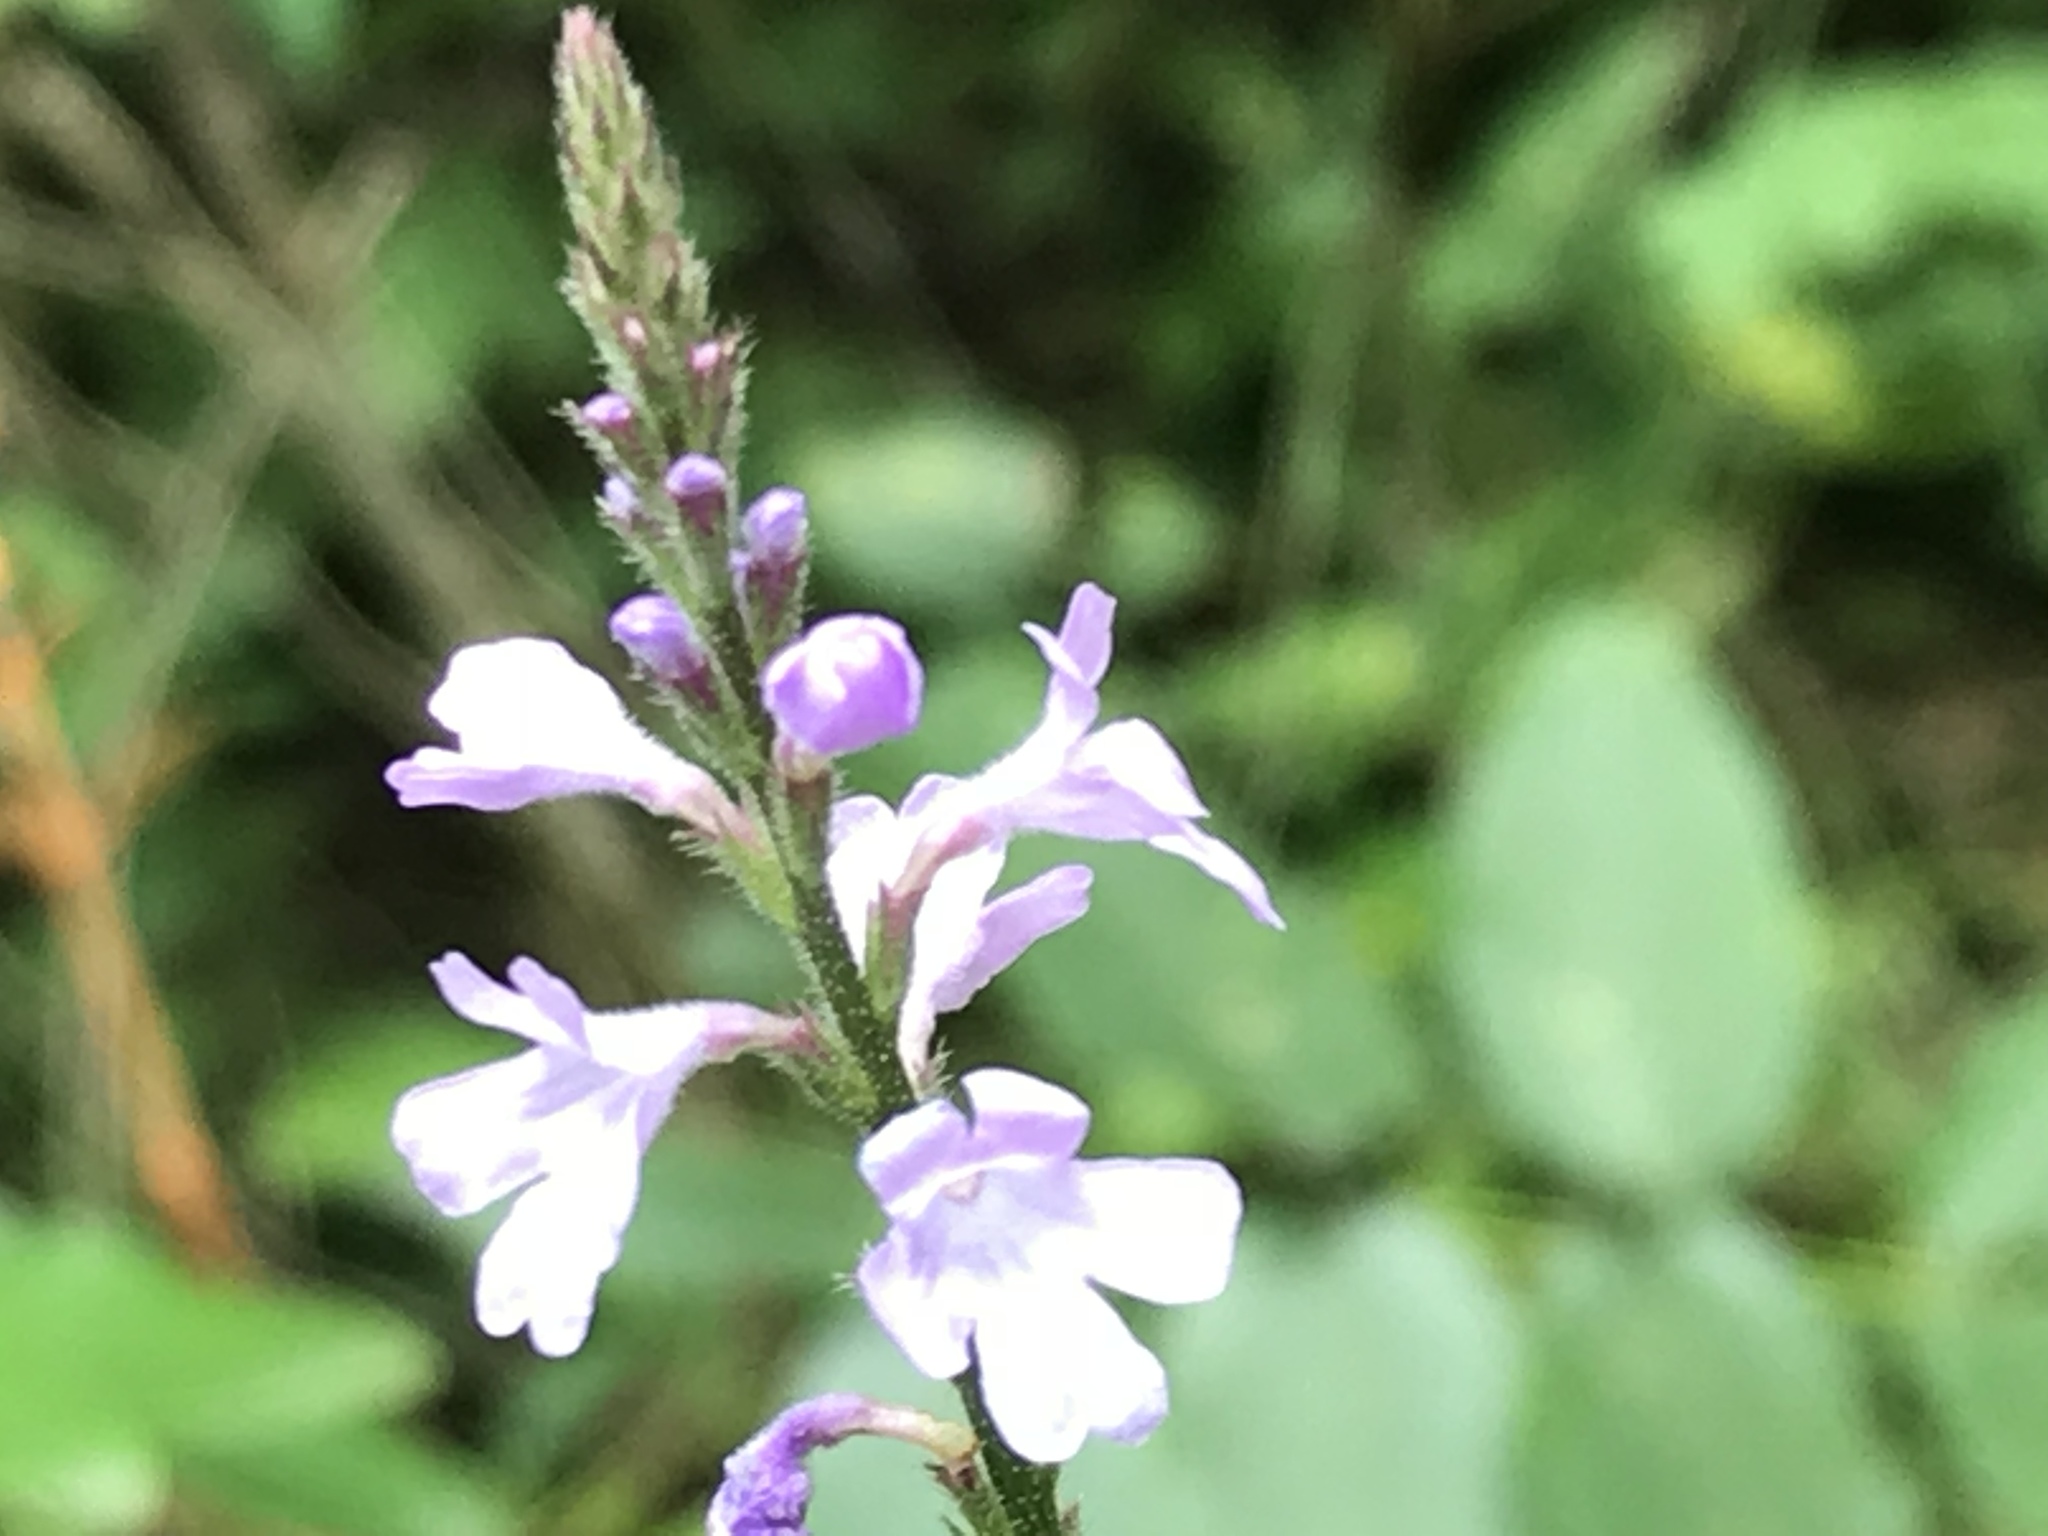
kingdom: Plantae
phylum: Tracheophyta
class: Magnoliopsida
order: Lamiales
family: Verbenaceae
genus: Verbena
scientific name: Verbena neomexicana
